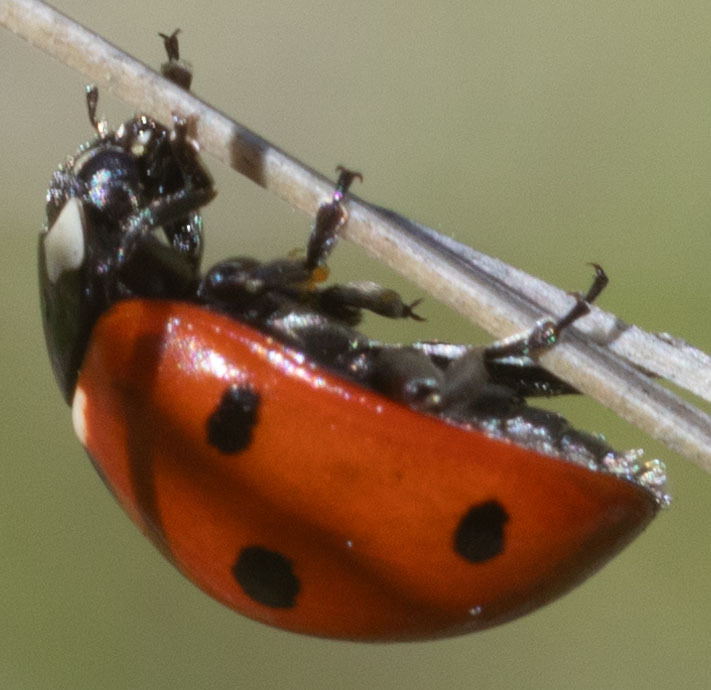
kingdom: Animalia
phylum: Arthropoda
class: Insecta
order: Coleoptera
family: Coccinellidae
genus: Coccinella
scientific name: Coccinella septempunctata
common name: Sevenspotted lady beetle
